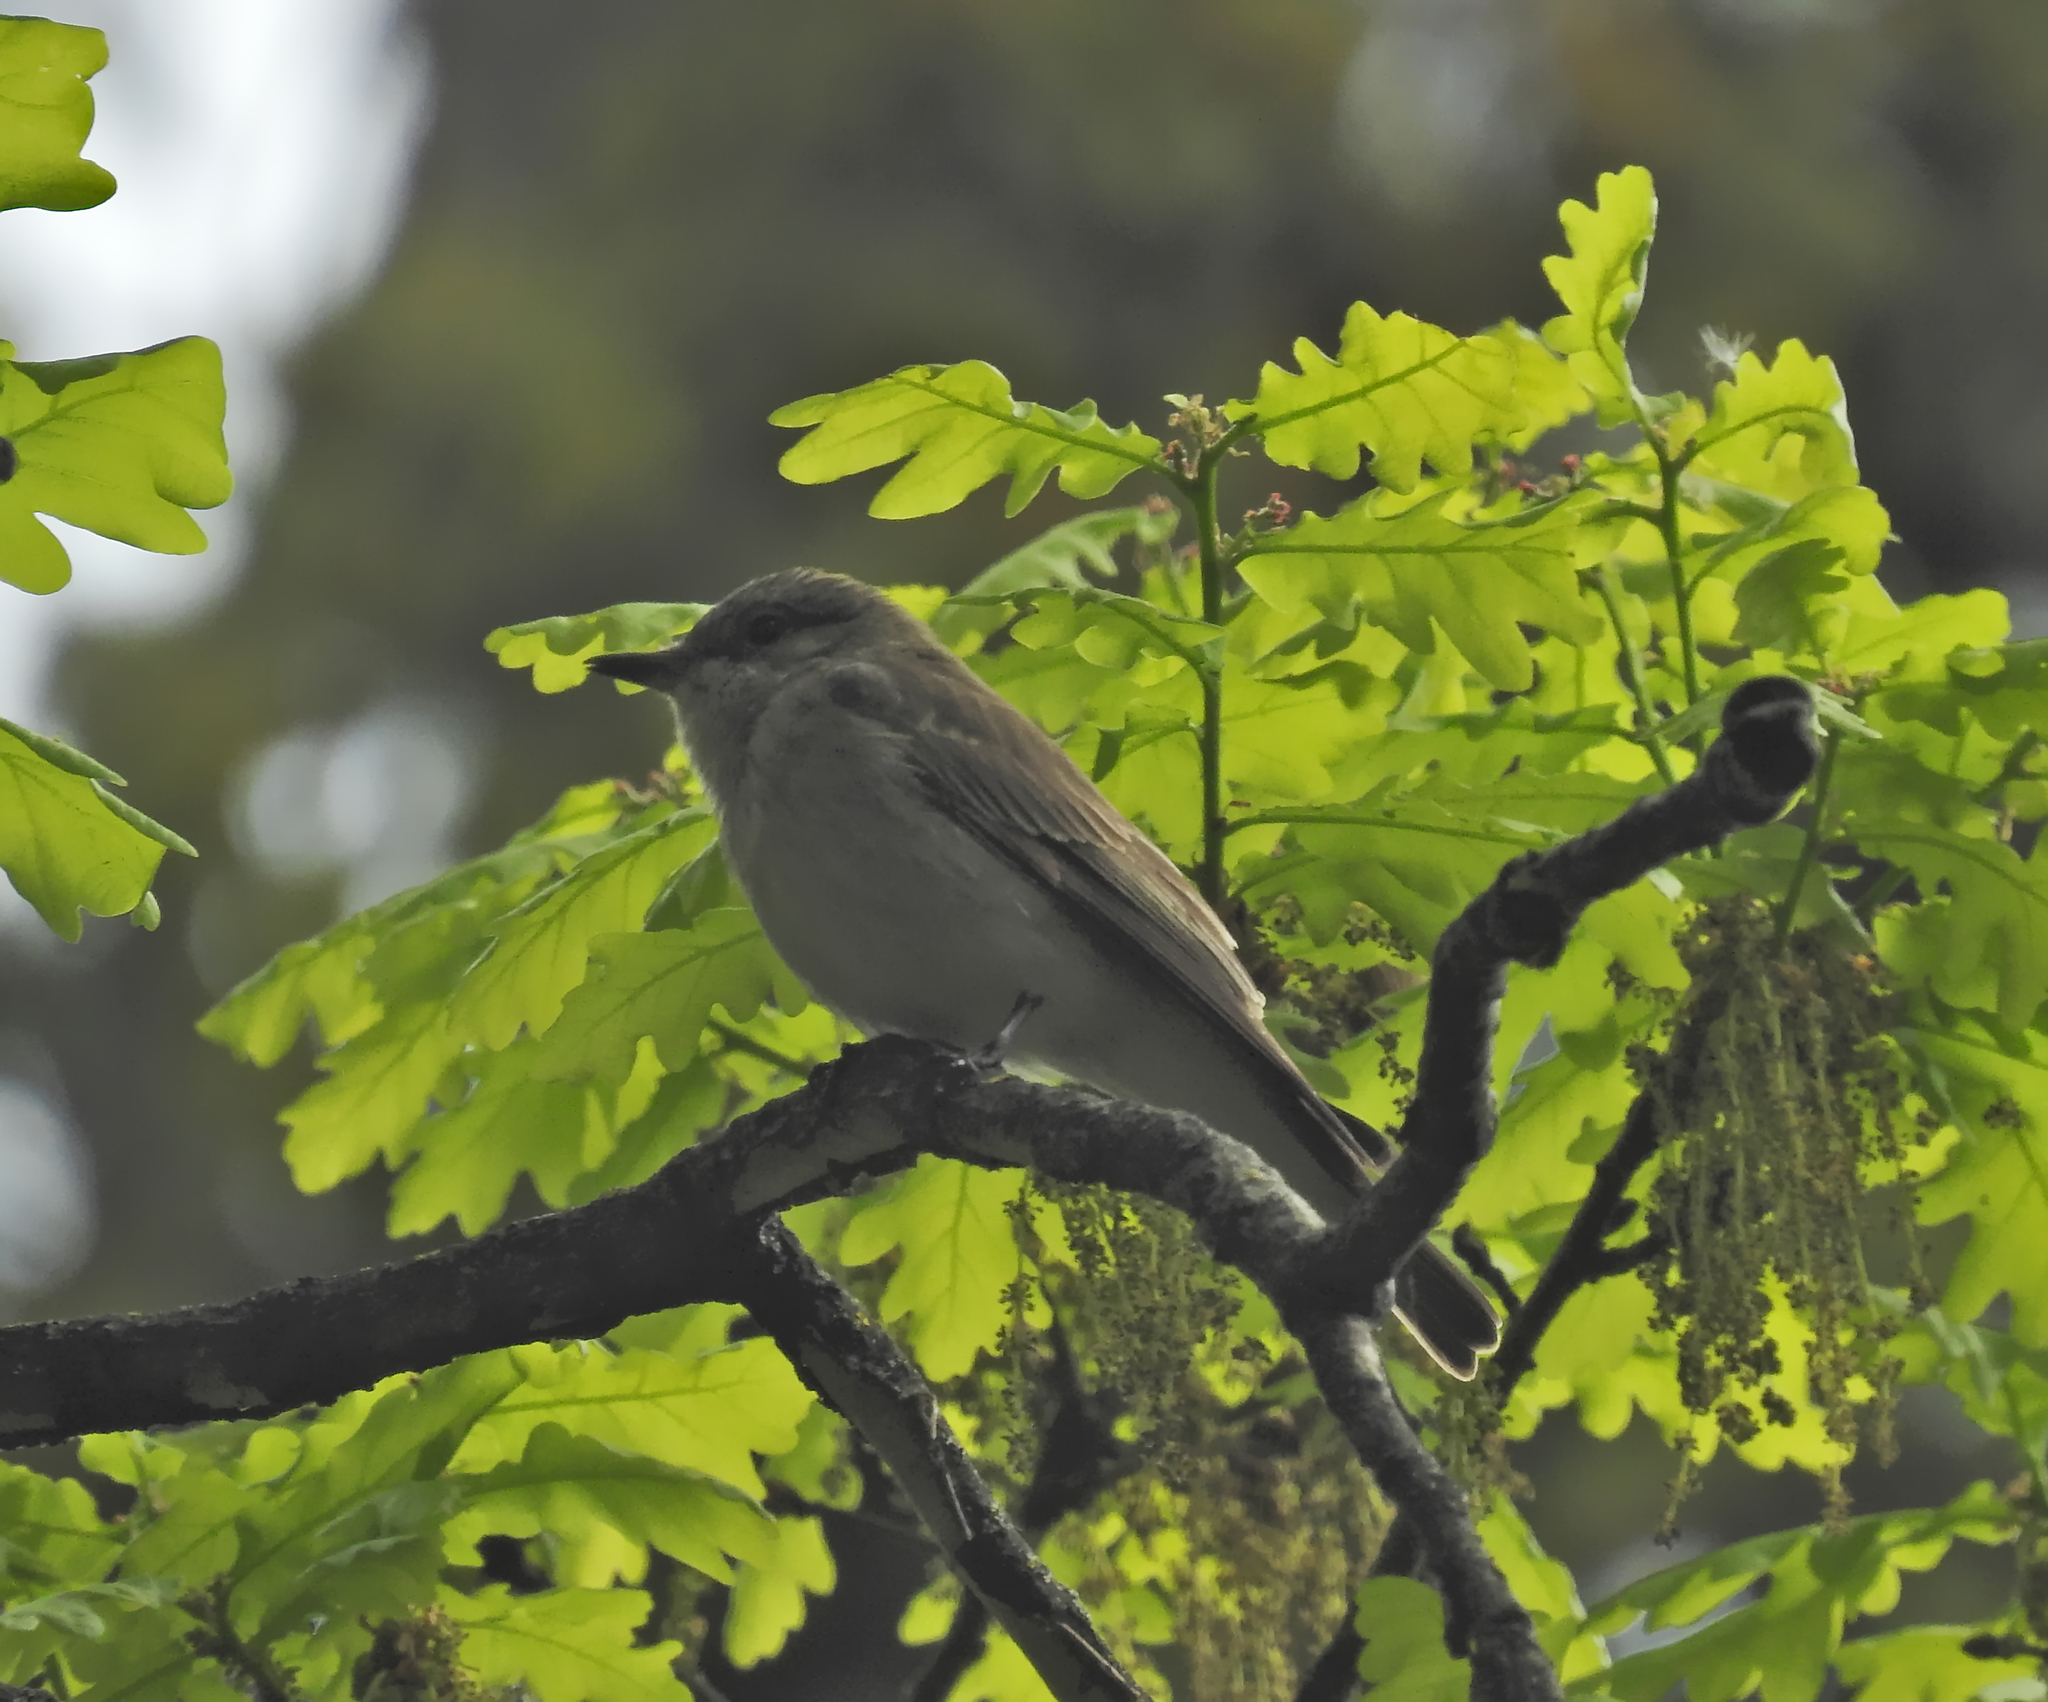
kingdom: Animalia
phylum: Chordata
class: Aves
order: Passeriformes
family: Muscicapidae
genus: Muscicapa
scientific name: Muscicapa striata
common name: Spotted flycatcher
